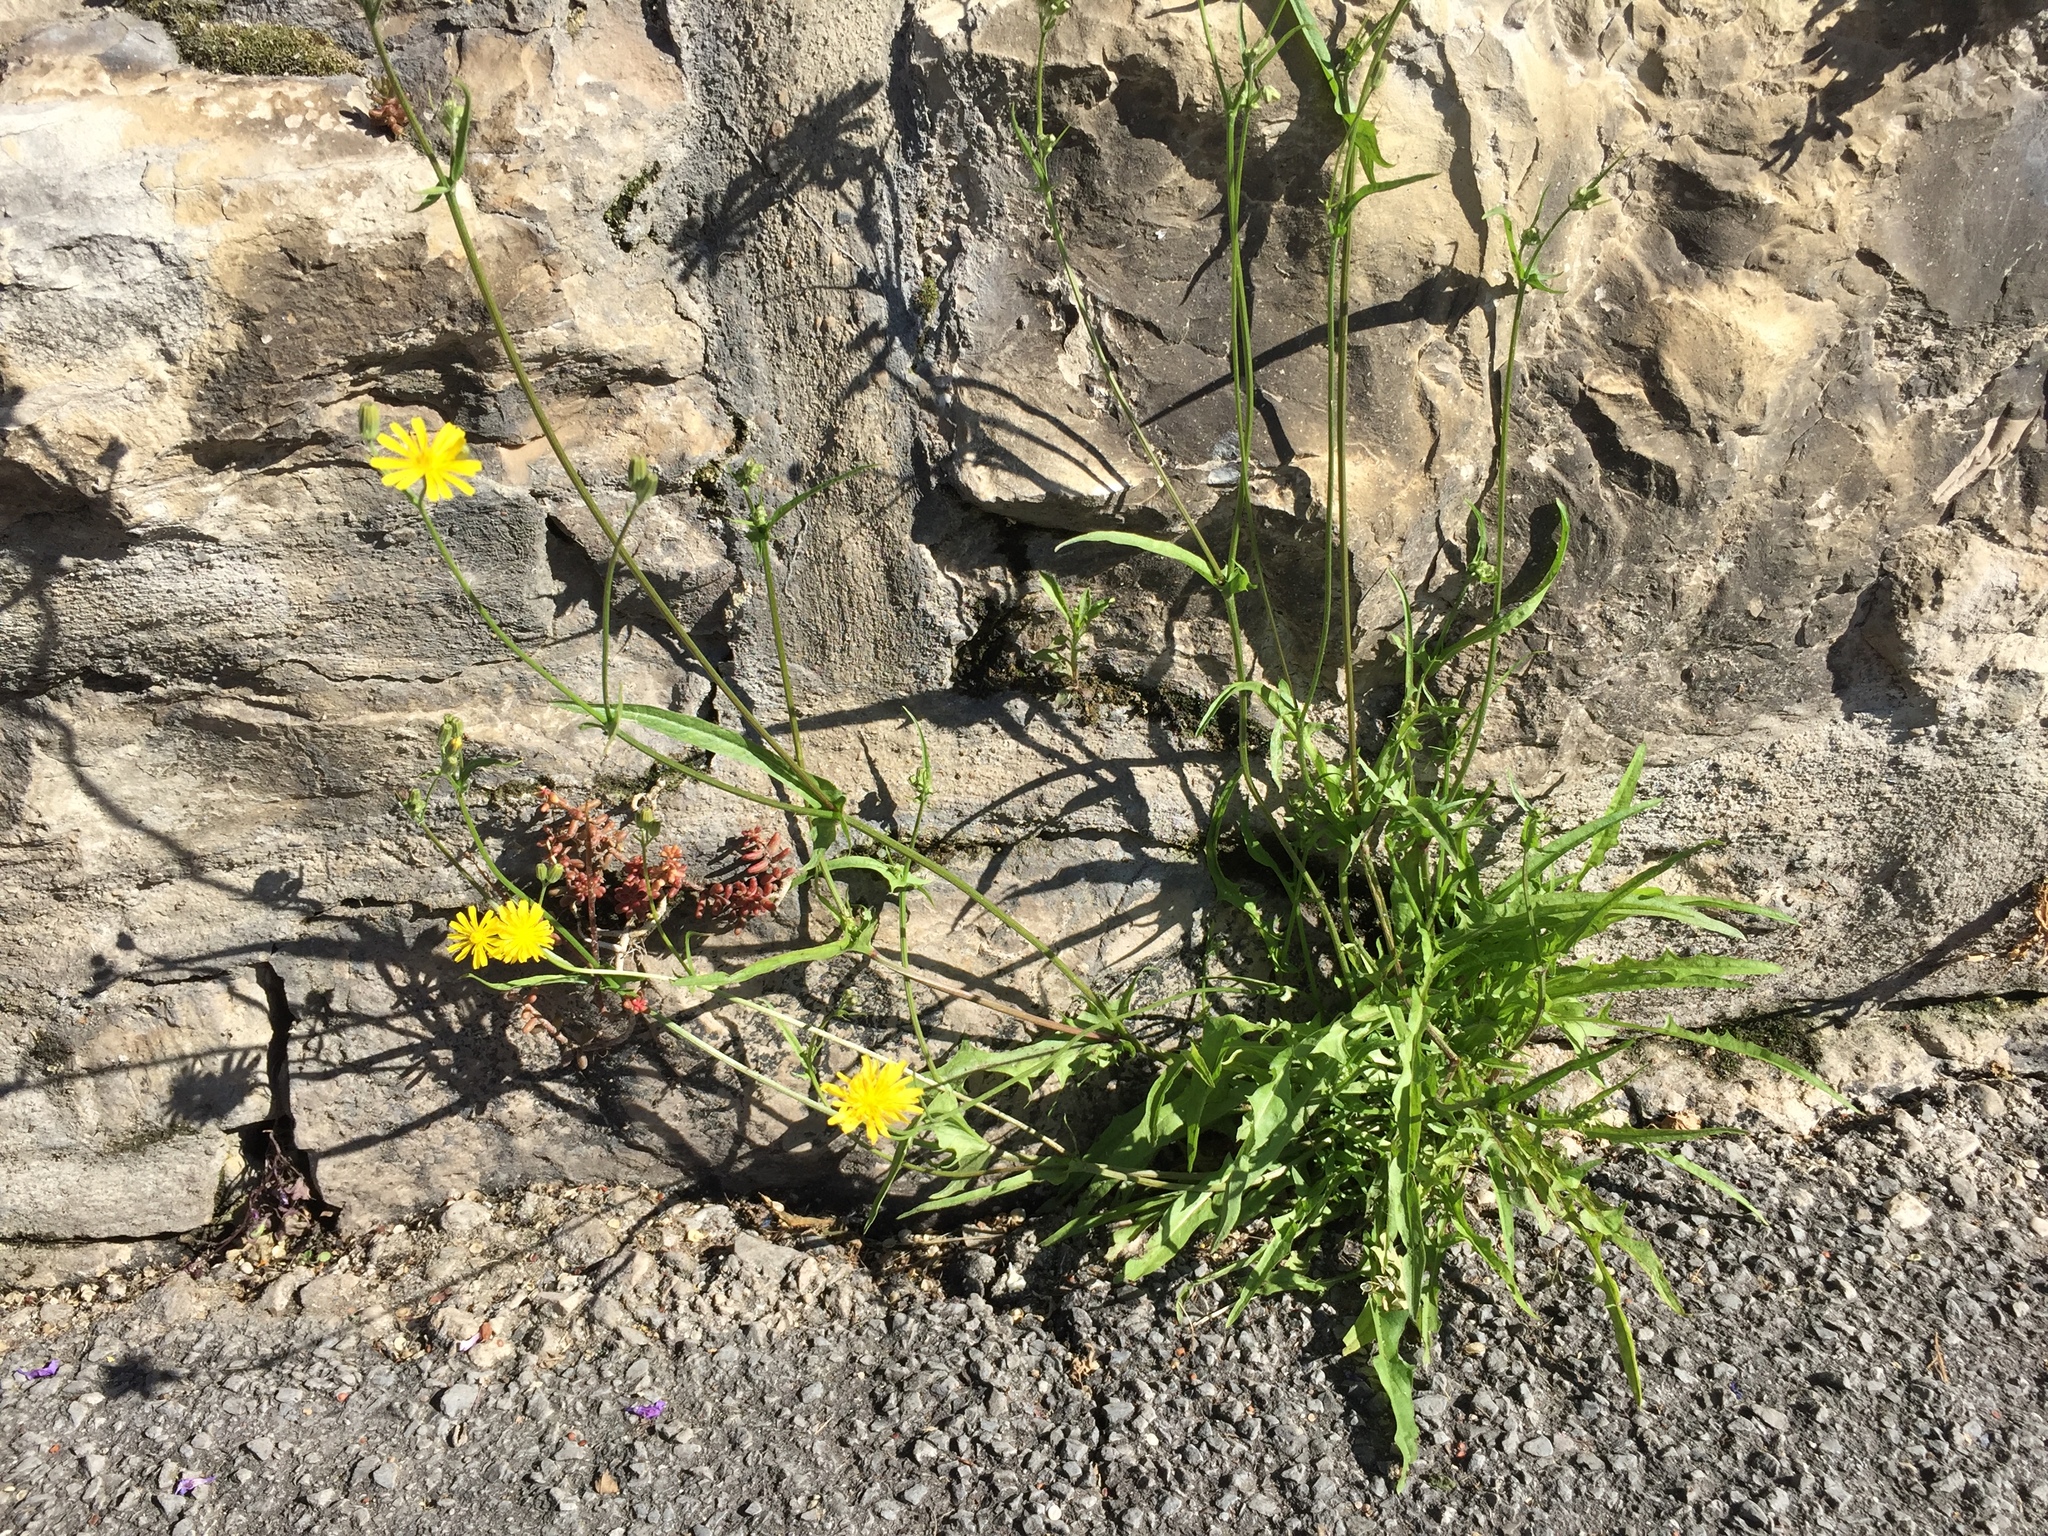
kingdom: Plantae
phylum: Tracheophyta
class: Magnoliopsida
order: Asterales
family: Asteraceae
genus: Crepis
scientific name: Crepis capillaris
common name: Smooth hawksbeard
